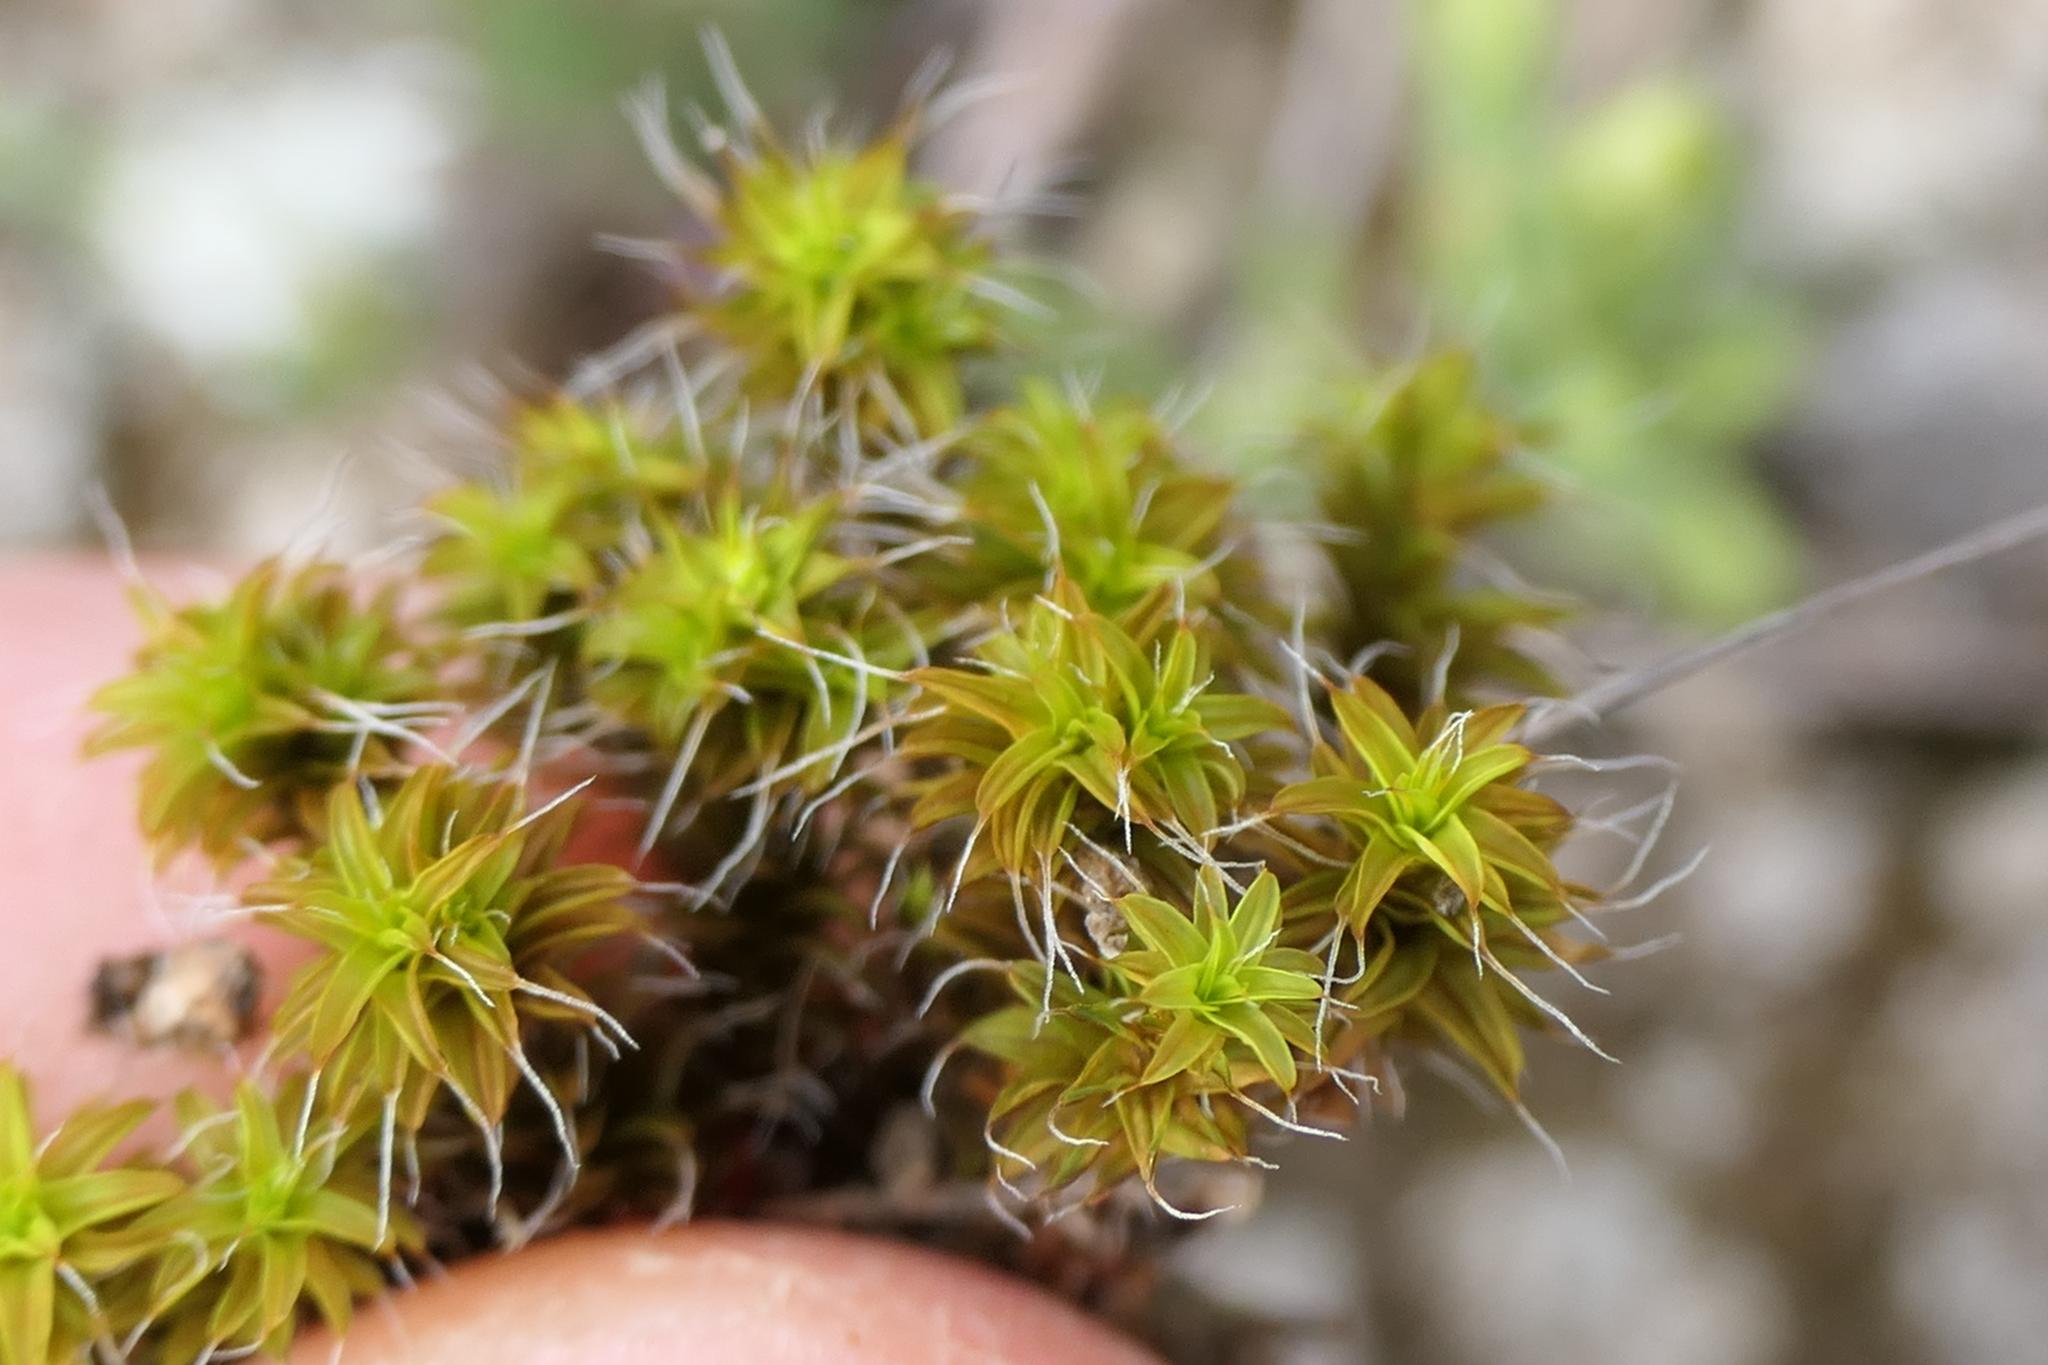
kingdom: Plantae
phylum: Bryophyta
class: Bryopsida
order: Pottiales
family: Pottiaceae
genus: Syntrichia
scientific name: Syntrichia ruralis
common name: Sidewalk screw moss
